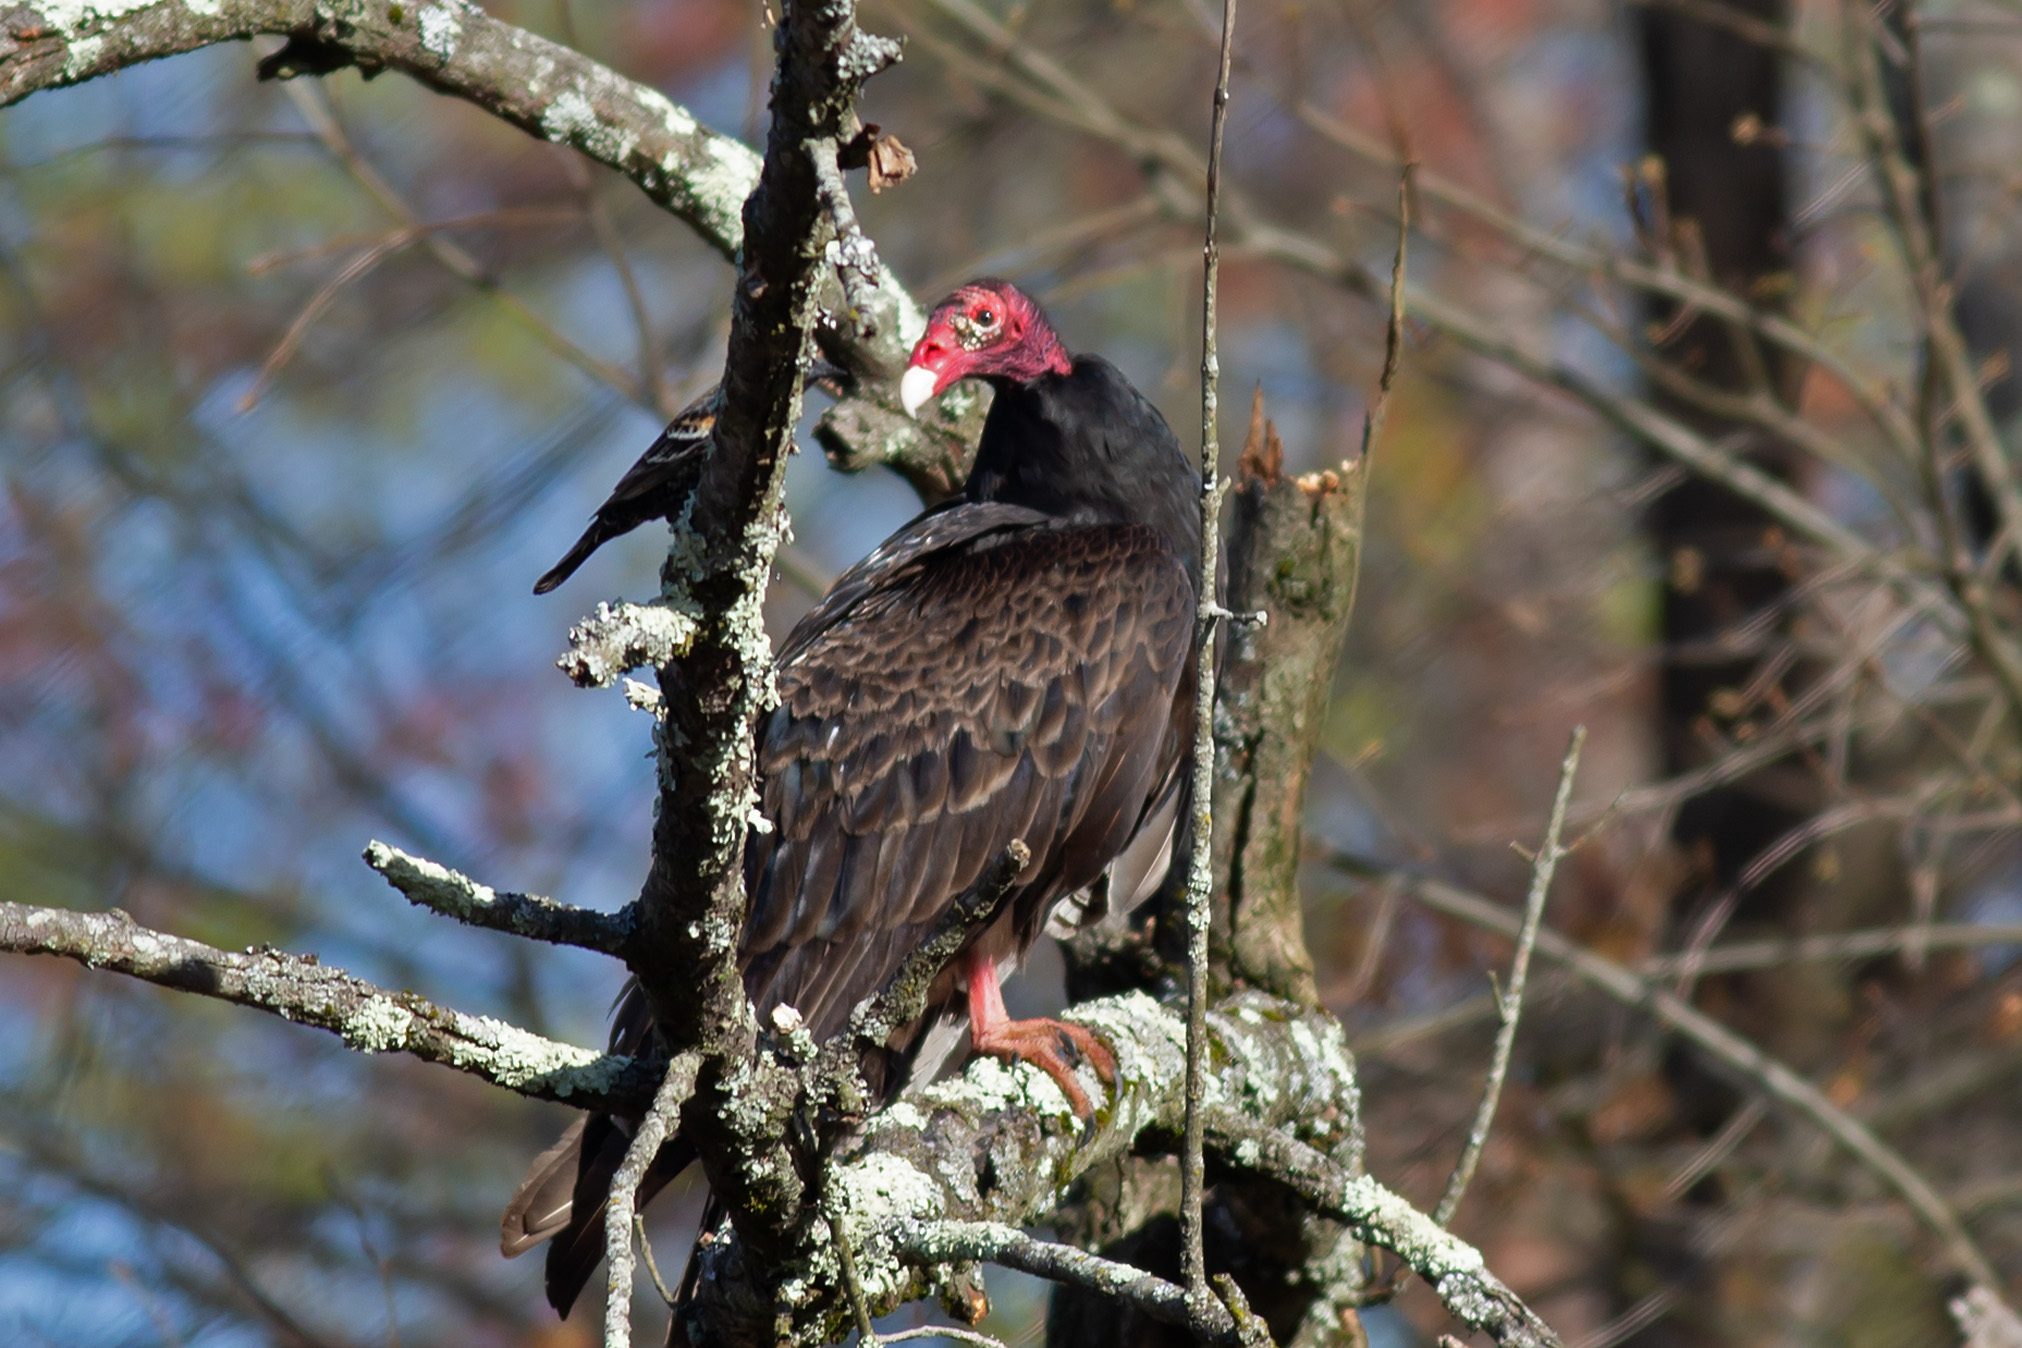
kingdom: Animalia
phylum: Chordata
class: Aves
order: Accipitriformes
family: Cathartidae
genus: Cathartes
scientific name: Cathartes aura
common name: Turkey vulture
